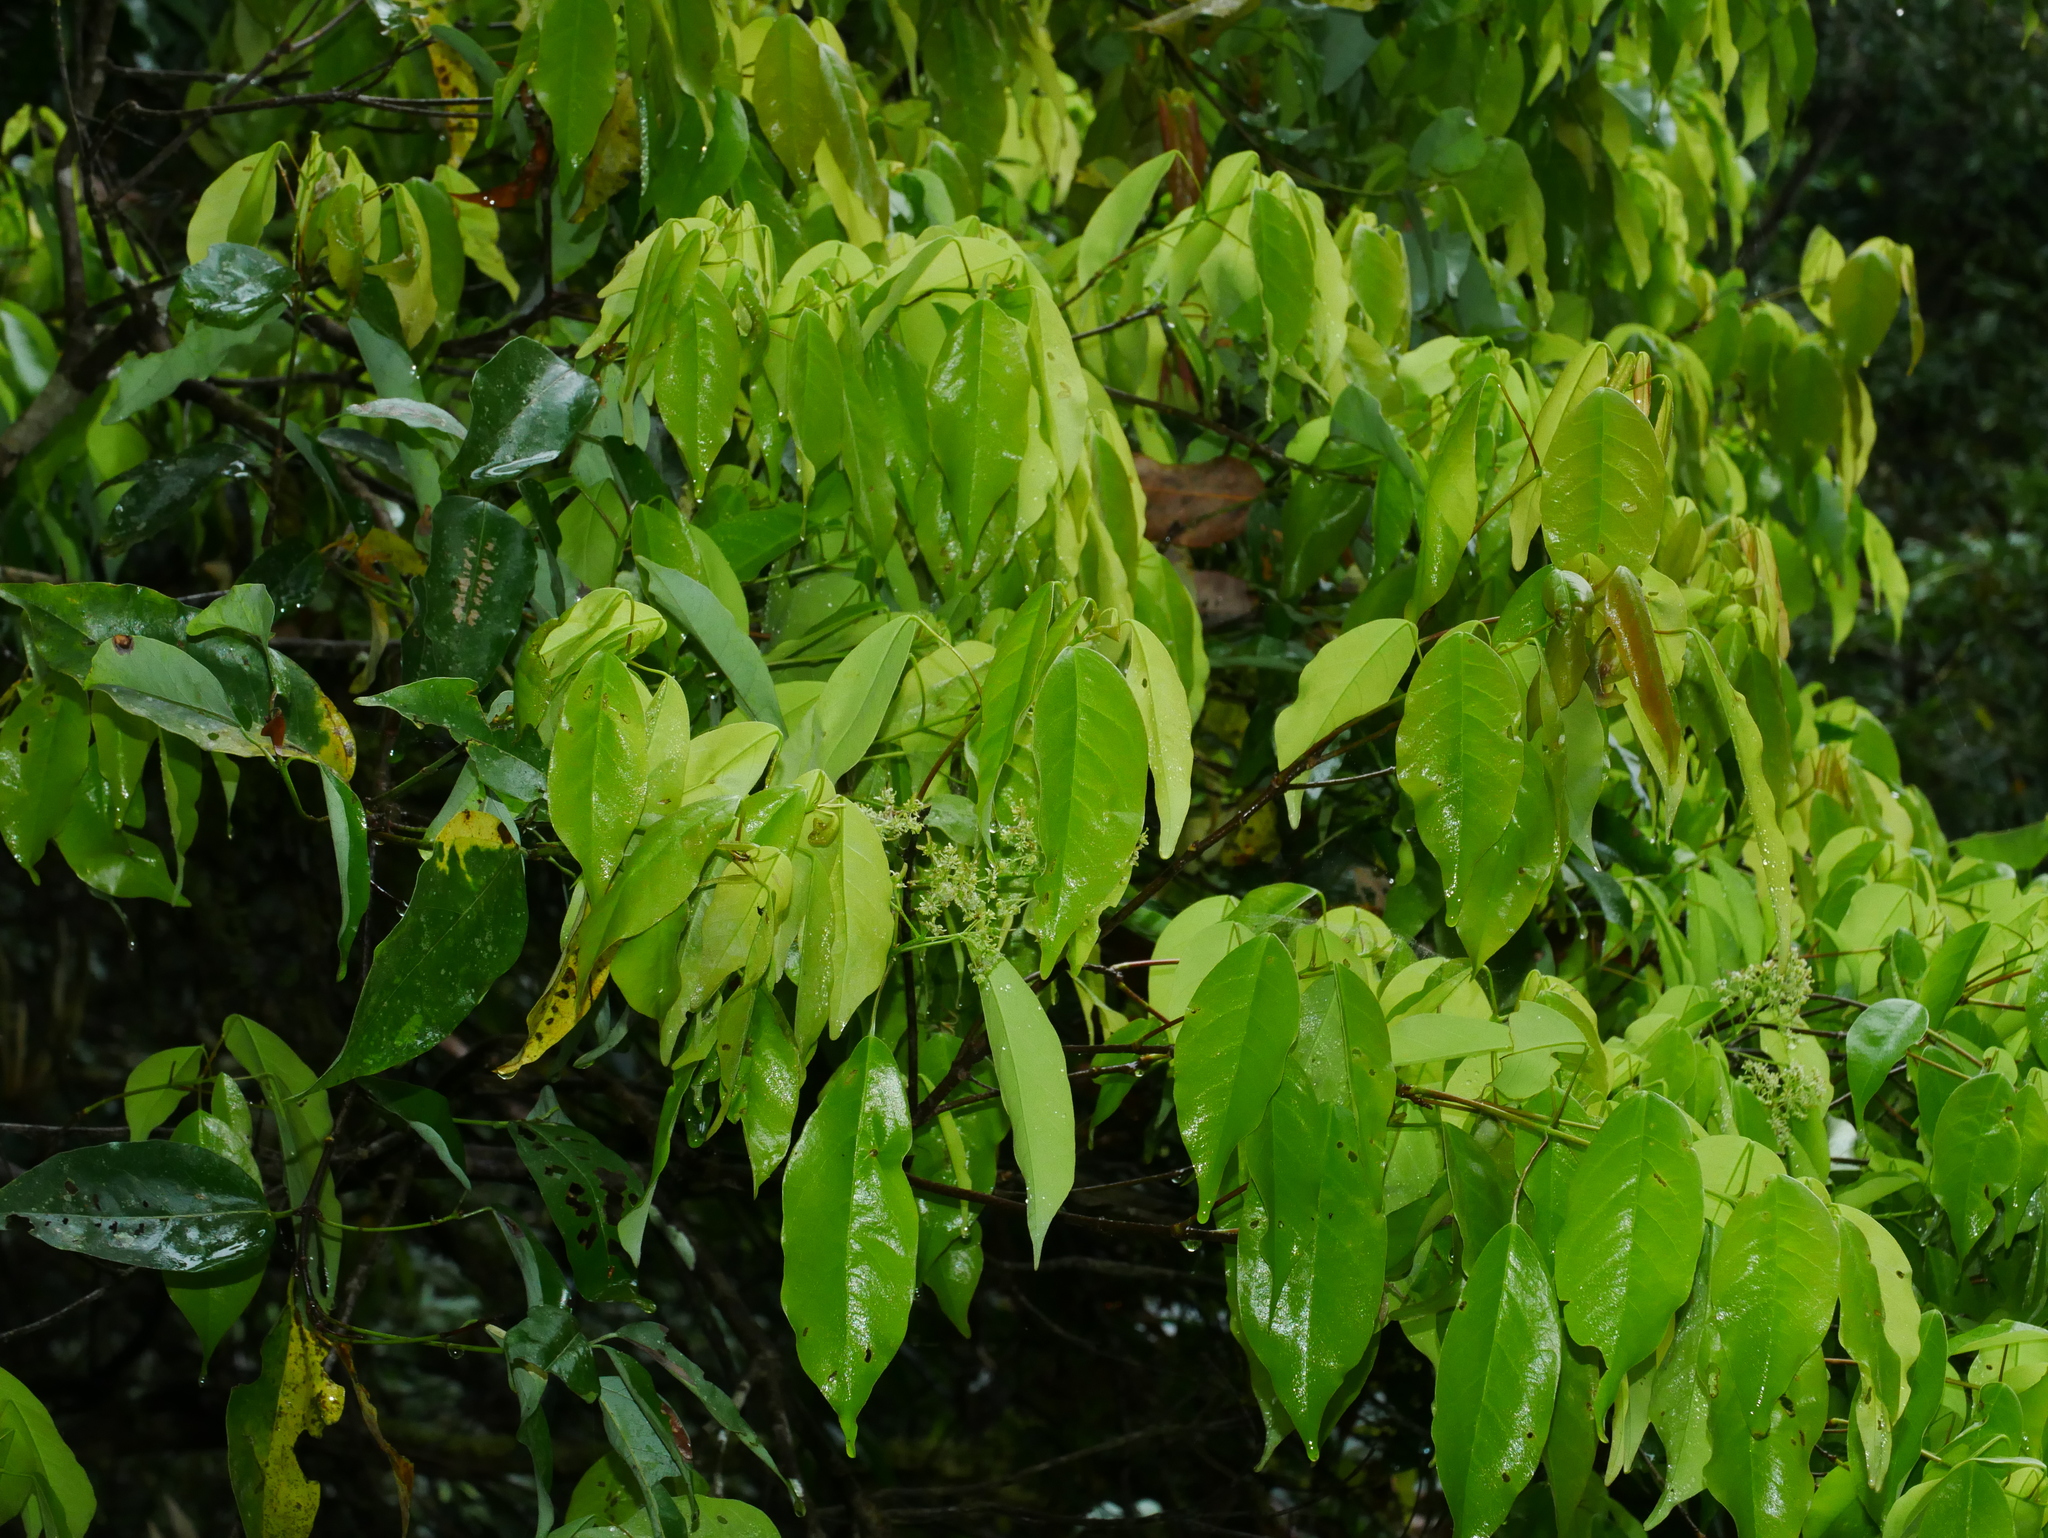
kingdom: Plantae
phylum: Tracheophyta
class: Magnoliopsida
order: Sapindales
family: Sapindaceae
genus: Acer
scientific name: Acer oblongum
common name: Himalayan maple
